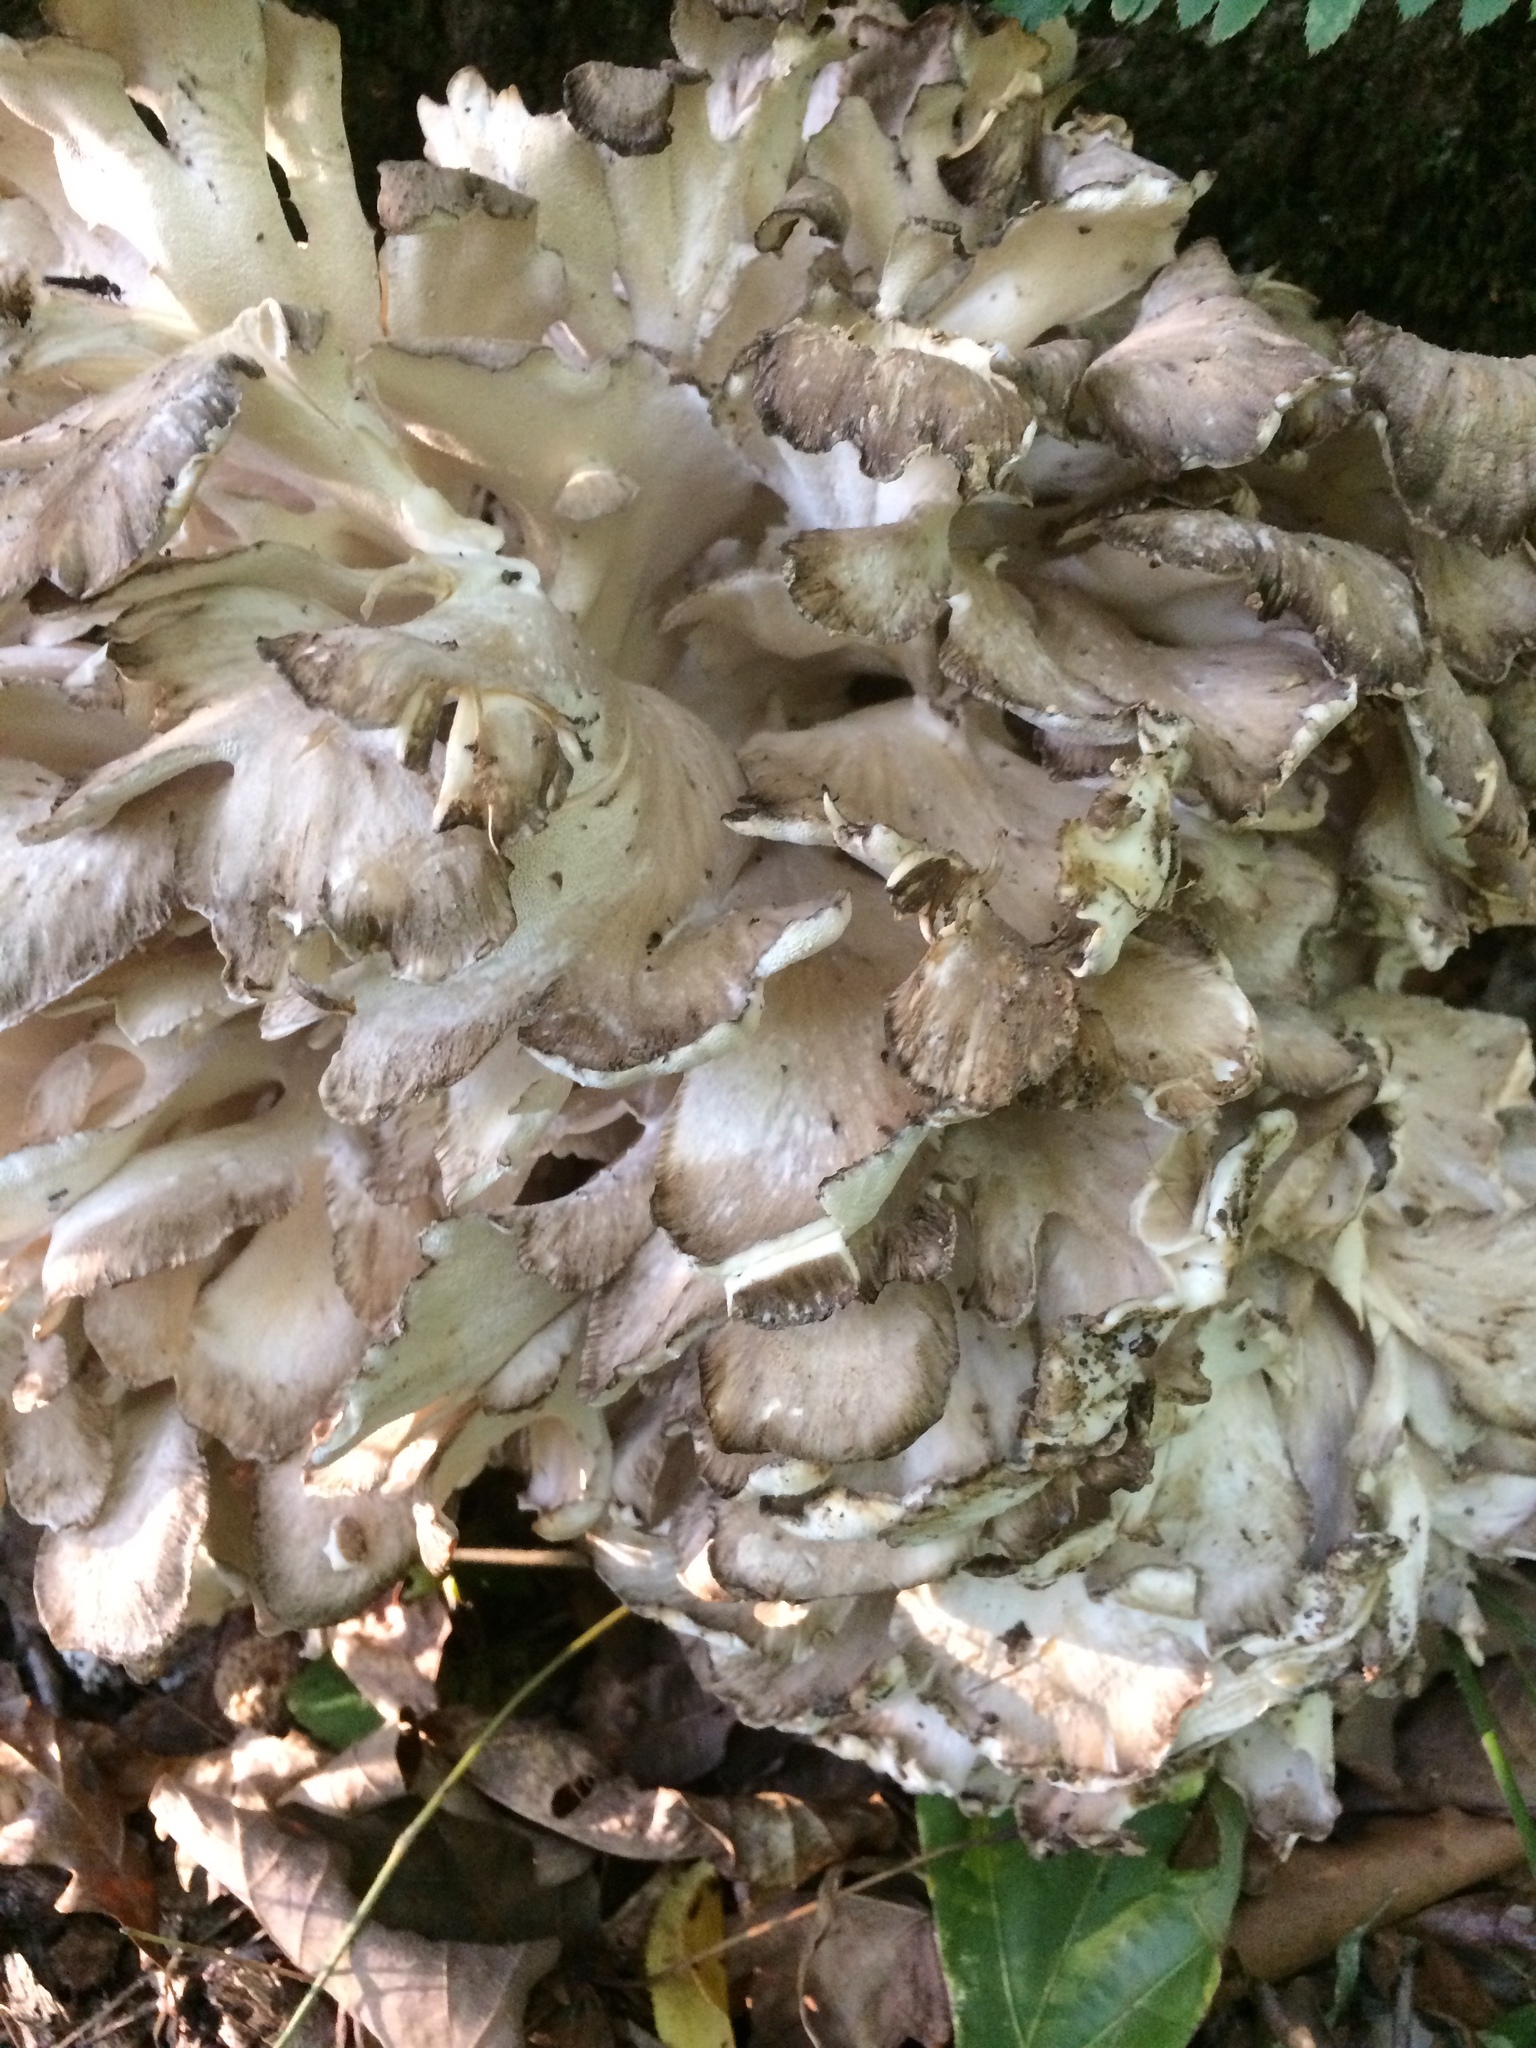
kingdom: Fungi
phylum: Basidiomycota
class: Agaricomycetes
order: Polyporales
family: Grifolaceae
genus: Grifola
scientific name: Grifola frondosa
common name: Hen of the woods
